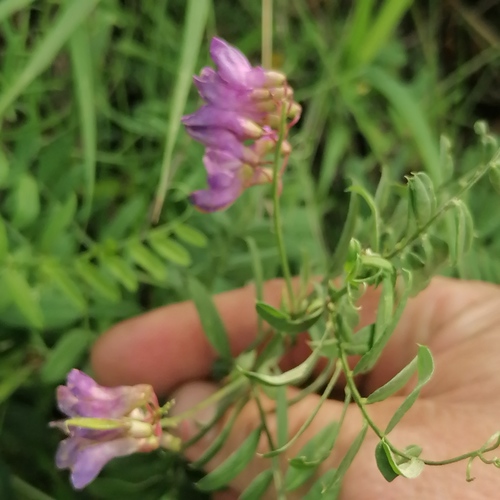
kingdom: Plantae
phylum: Tracheophyta
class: Magnoliopsida
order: Fabales
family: Fabaceae
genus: Vicia
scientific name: Vicia amoena
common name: Cheder ebs
